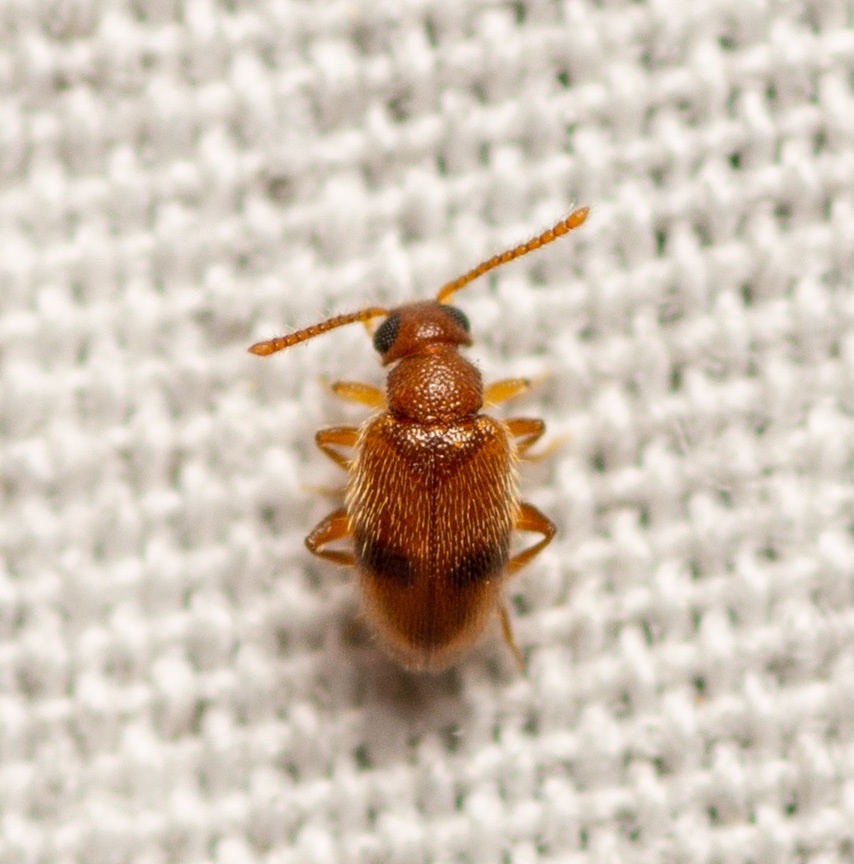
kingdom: Animalia
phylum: Arthropoda
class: Insecta
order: Coleoptera
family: Aderidae
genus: Zonantes
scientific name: Zonantes pallidus
